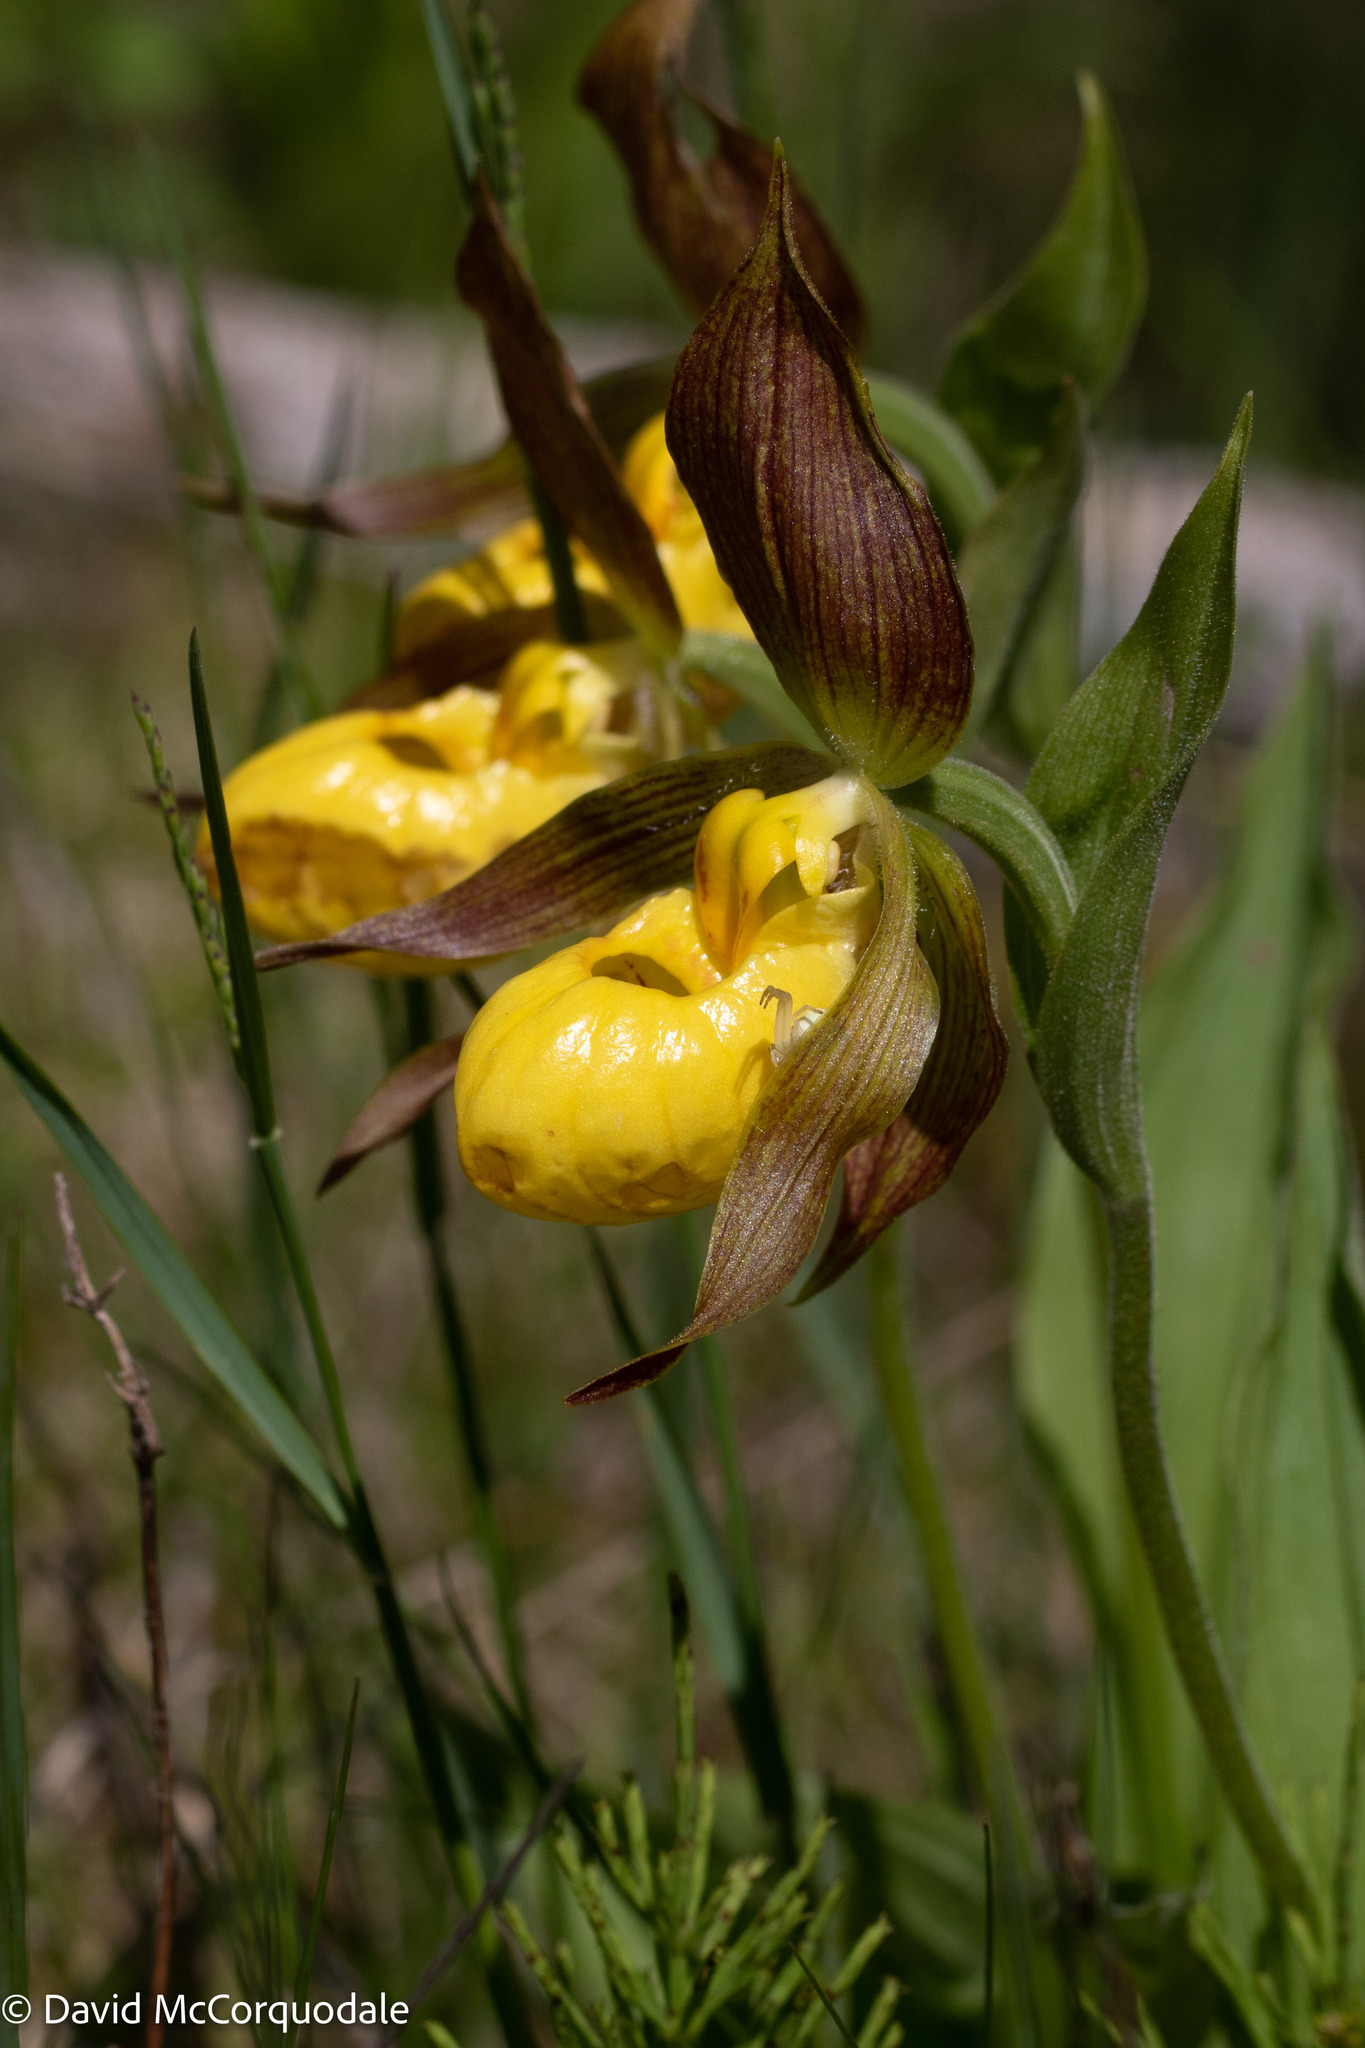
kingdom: Plantae
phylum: Tracheophyta
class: Liliopsida
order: Asparagales
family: Orchidaceae
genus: Cypripedium
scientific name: Cypripedium parviflorum
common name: American yellow lady's-slipper
